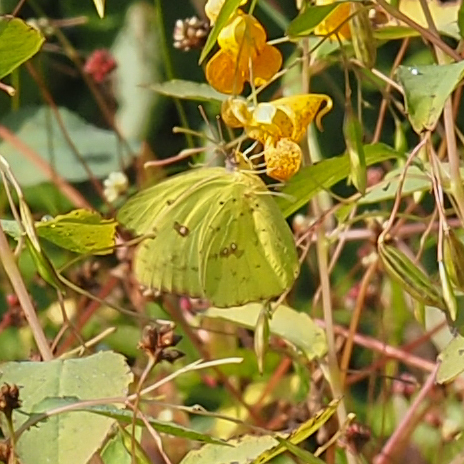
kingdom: Animalia
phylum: Arthropoda
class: Insecta
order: Lepidoptera
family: Pieridae
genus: Phoebis
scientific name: Phoebis sennae
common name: Cloudless sulphur
